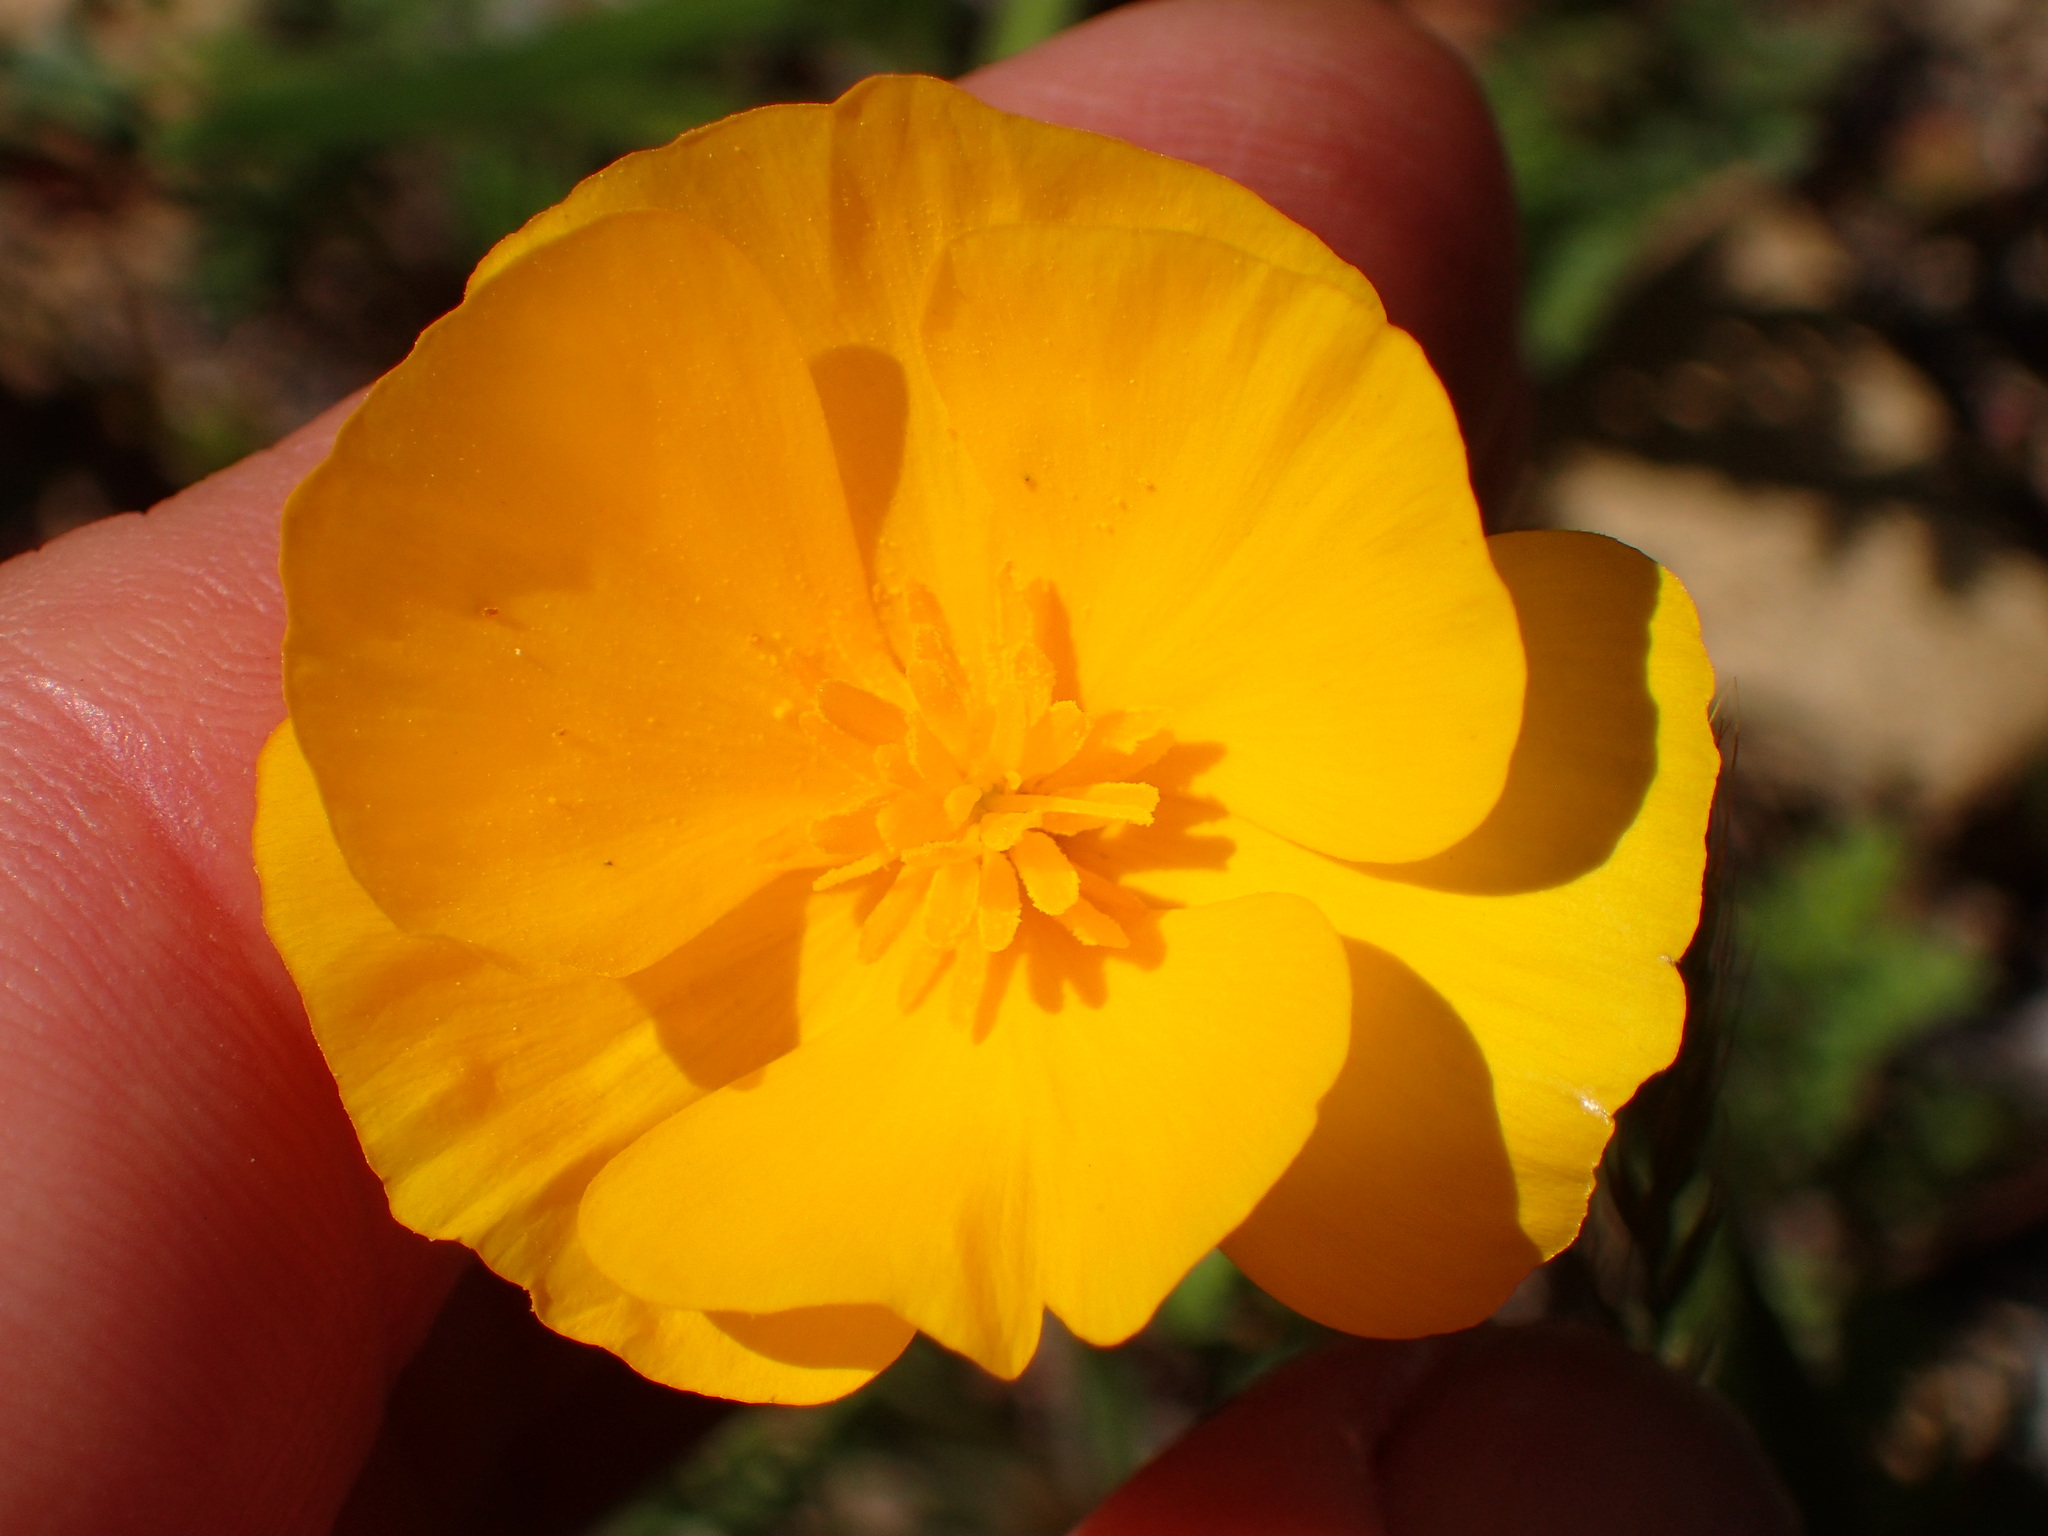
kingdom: Plantae
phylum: Tracheophyta
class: Magnoliopsida
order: Ranunculales
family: Papaveraceae
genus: Eschscholzia
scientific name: Eschscholzia caespitosa
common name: Tufted california-poppy
